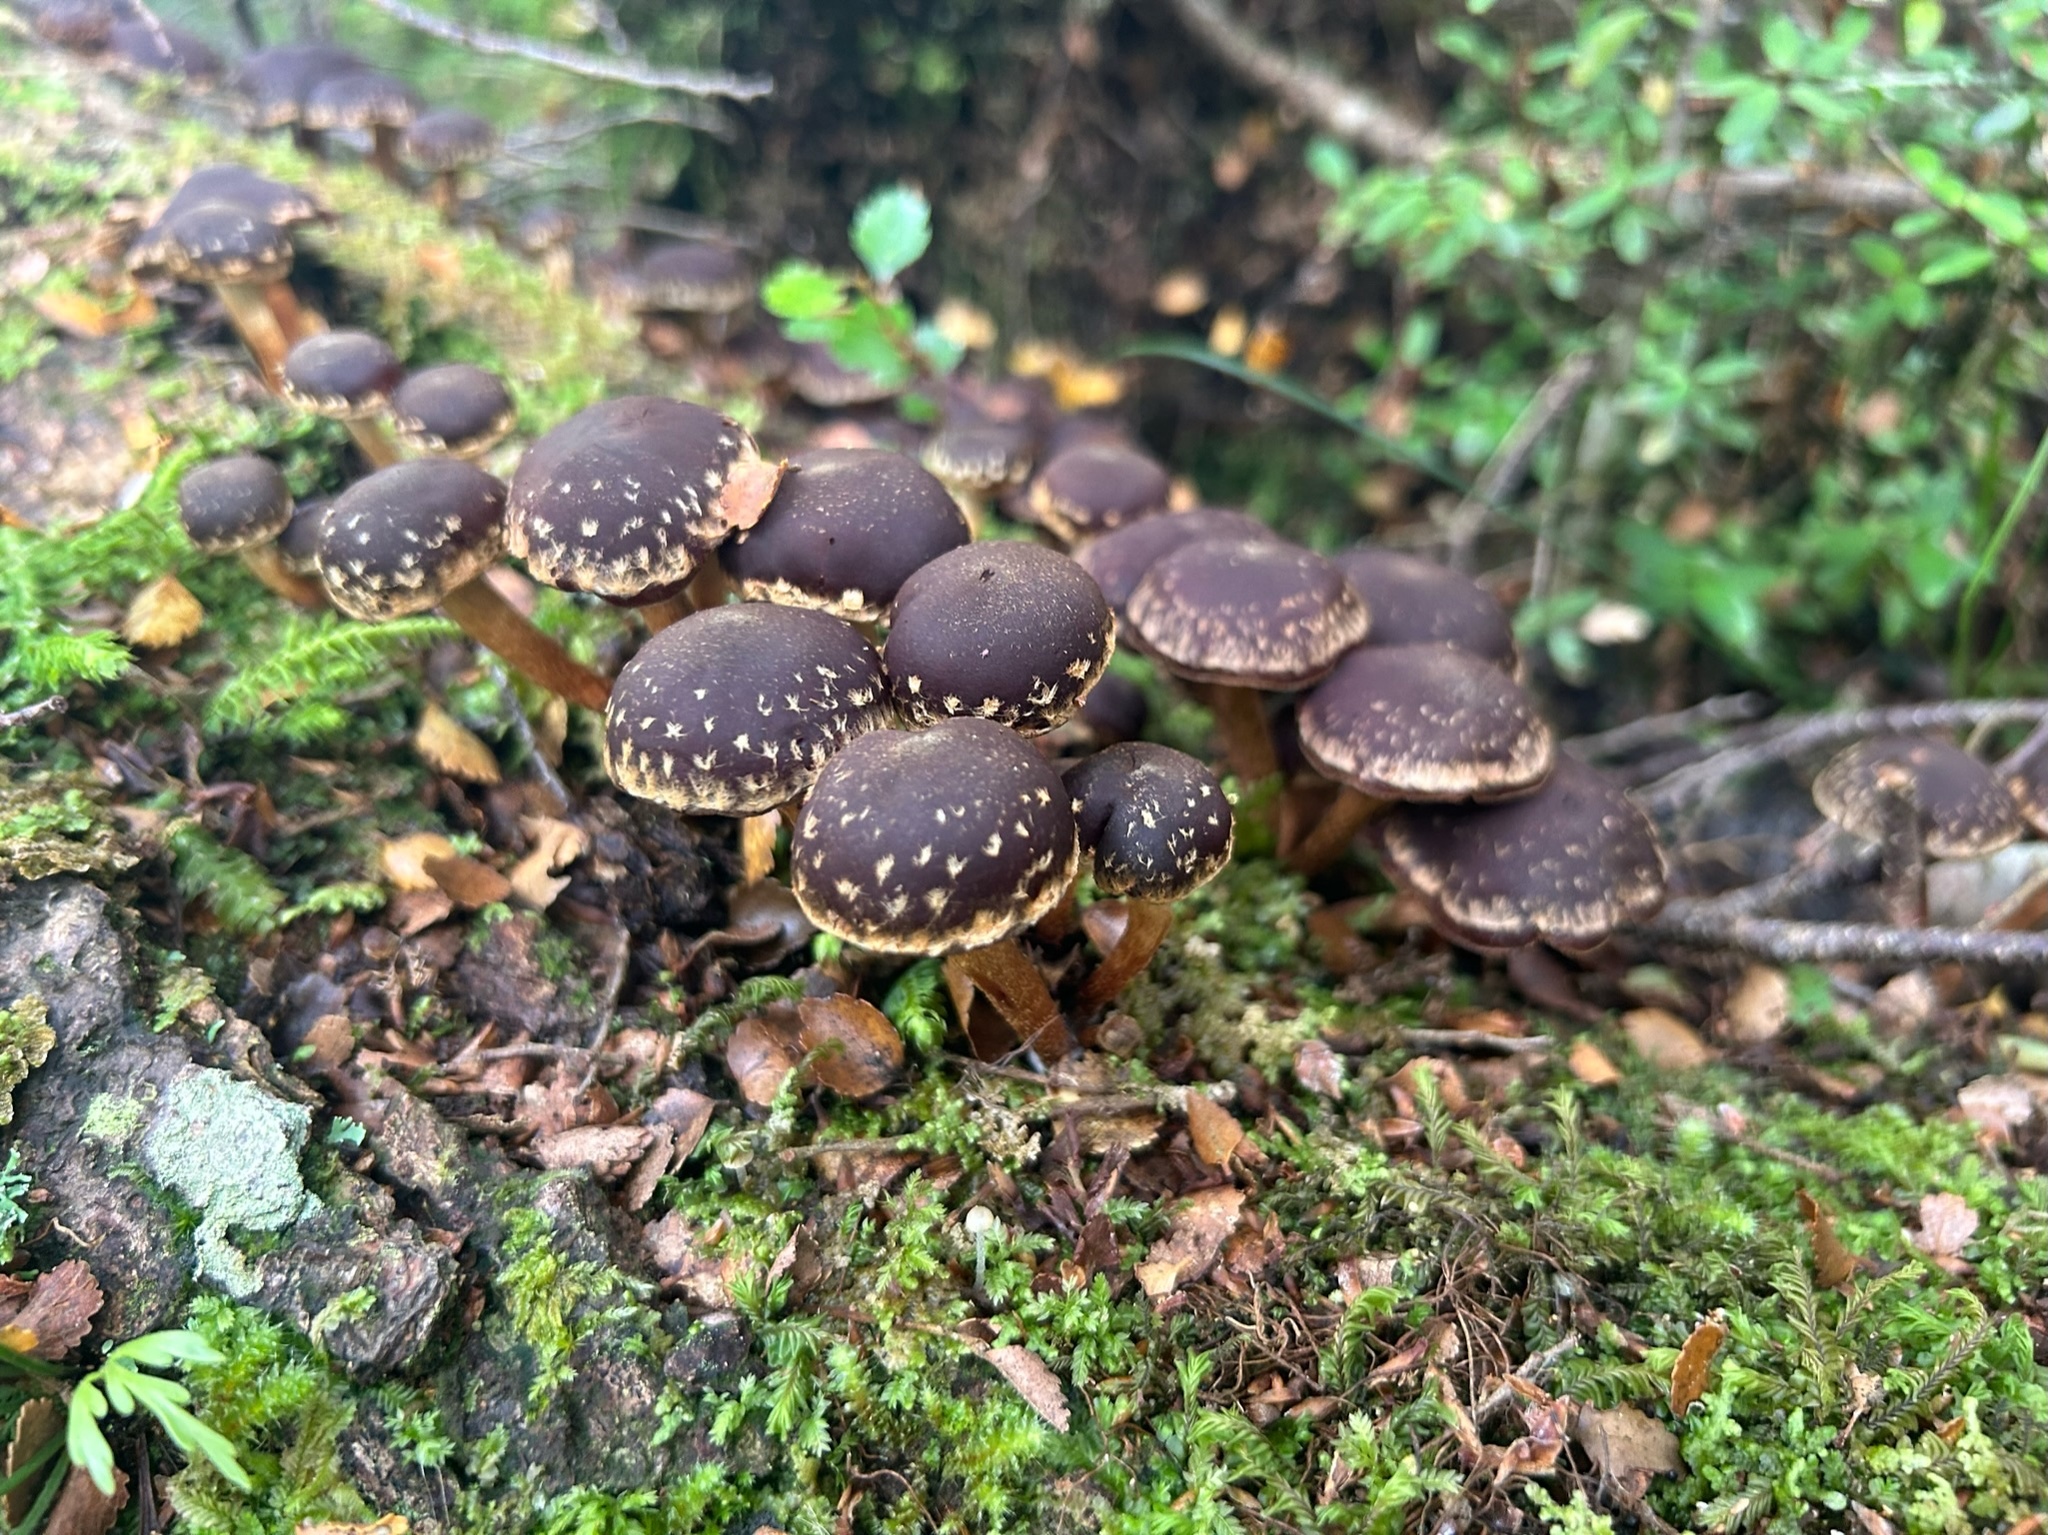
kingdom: Fungi
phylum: Basidiomycota
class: Agaricomycetes
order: Agaricales
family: Strophariaceae
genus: Hypholoma
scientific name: Hypholoma brunneum
